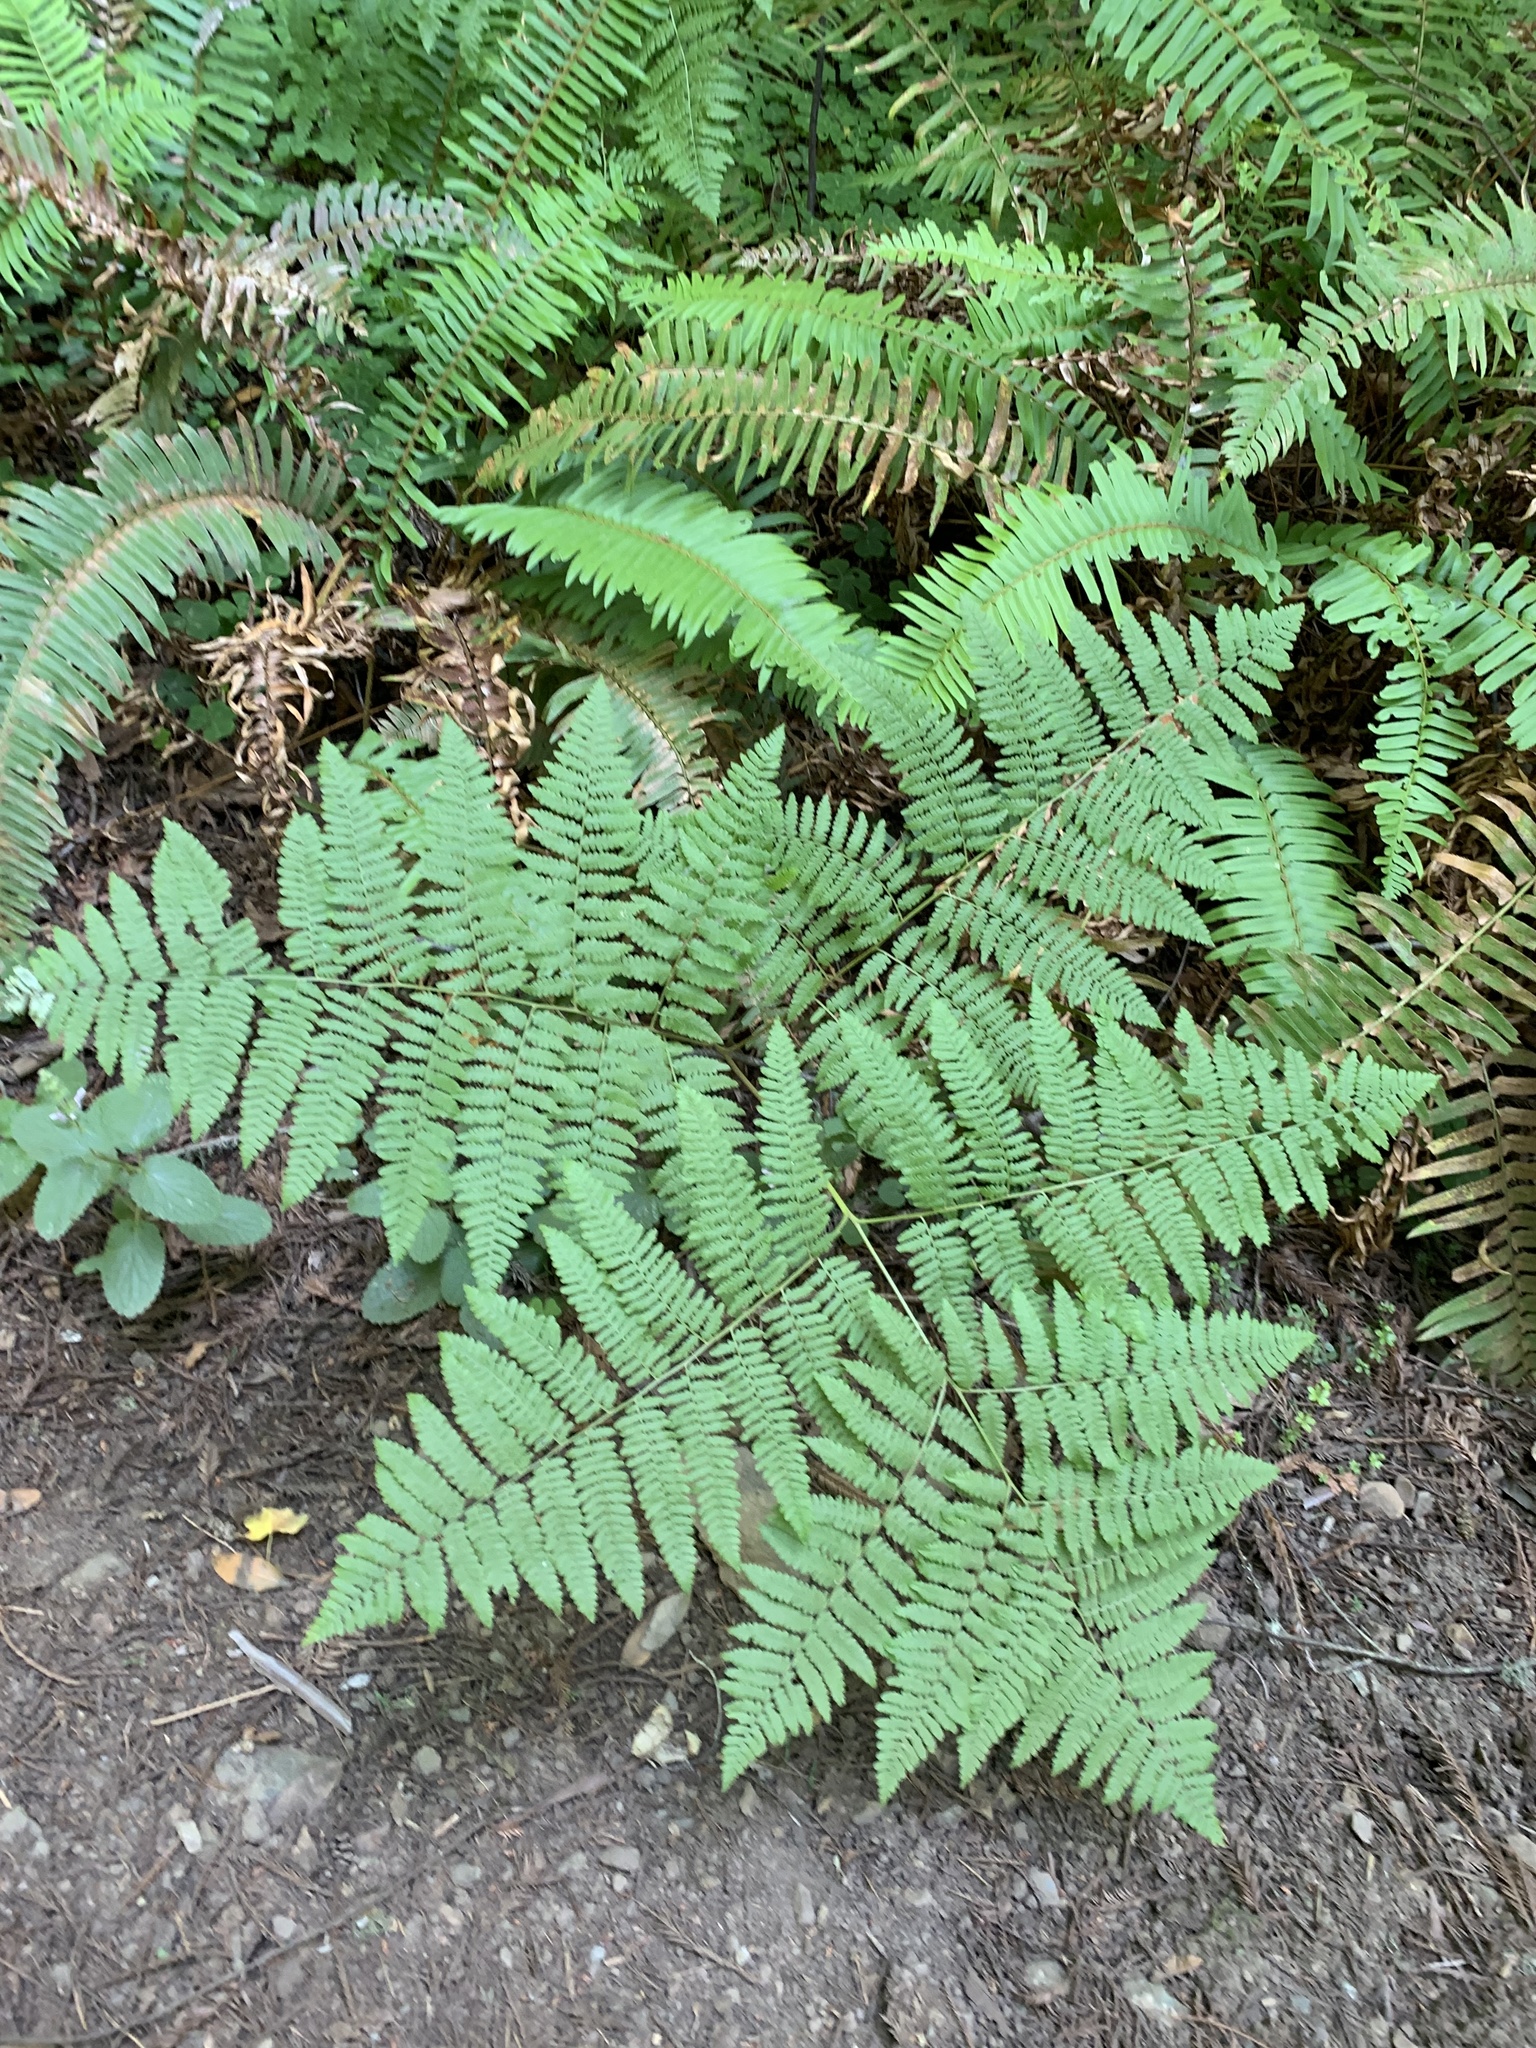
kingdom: Plantae
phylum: Tracheophyta
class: Polypodiopsida
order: Polypodiales
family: Dennstaedtiaceae
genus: Pteridium
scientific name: Pteridium aquilinum
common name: Bracken
